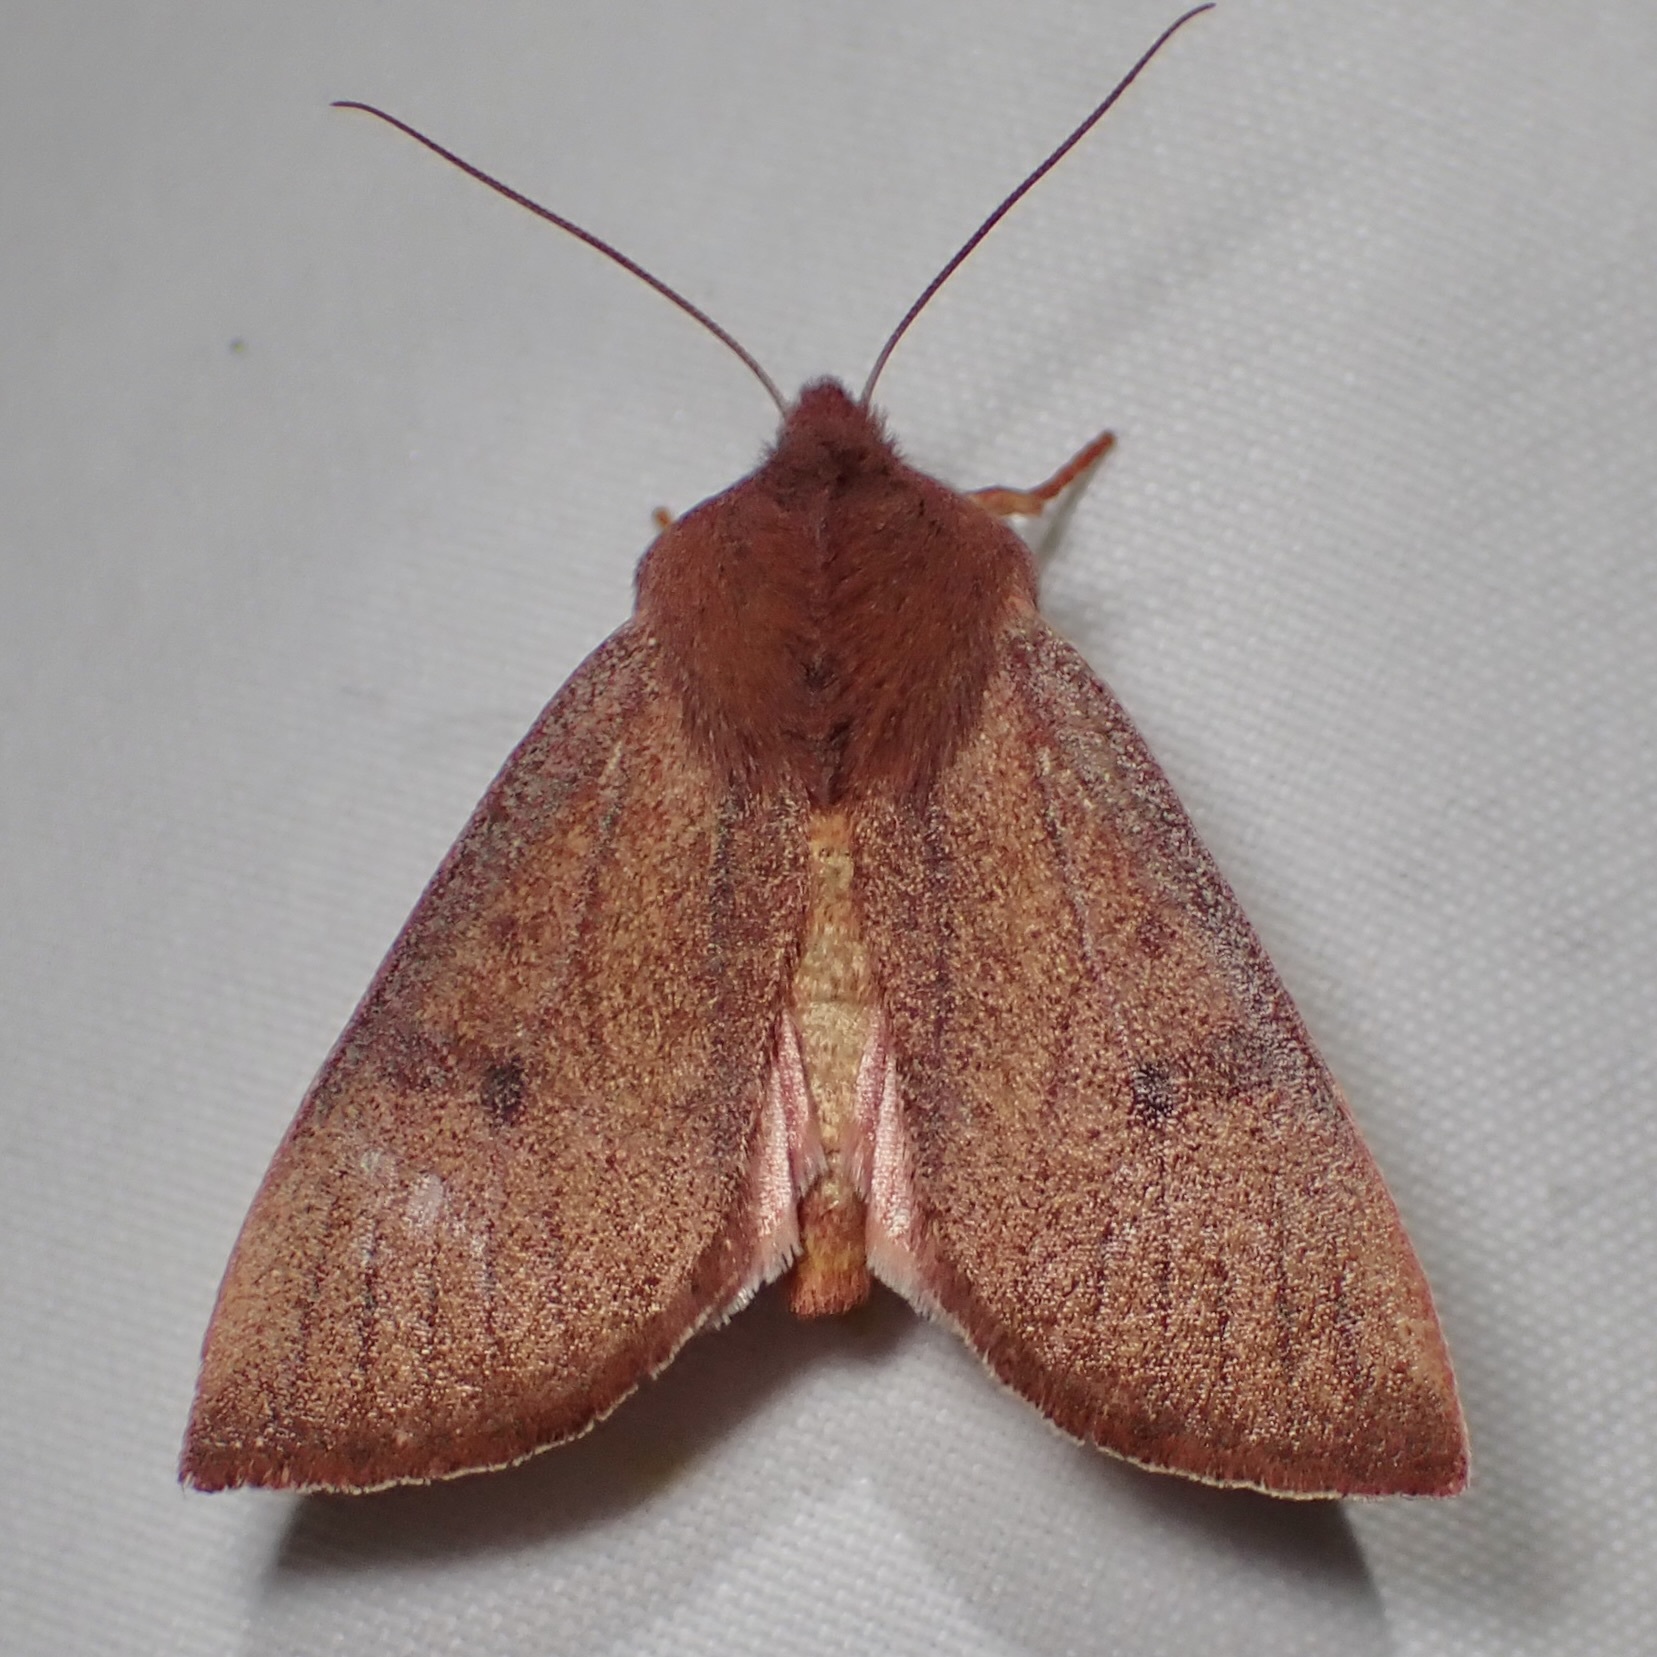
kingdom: Animalia
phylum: Arthropoda
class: Insecta
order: Lepidoptera
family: Noctuidae
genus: Orthosia
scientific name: Orthosia mys
